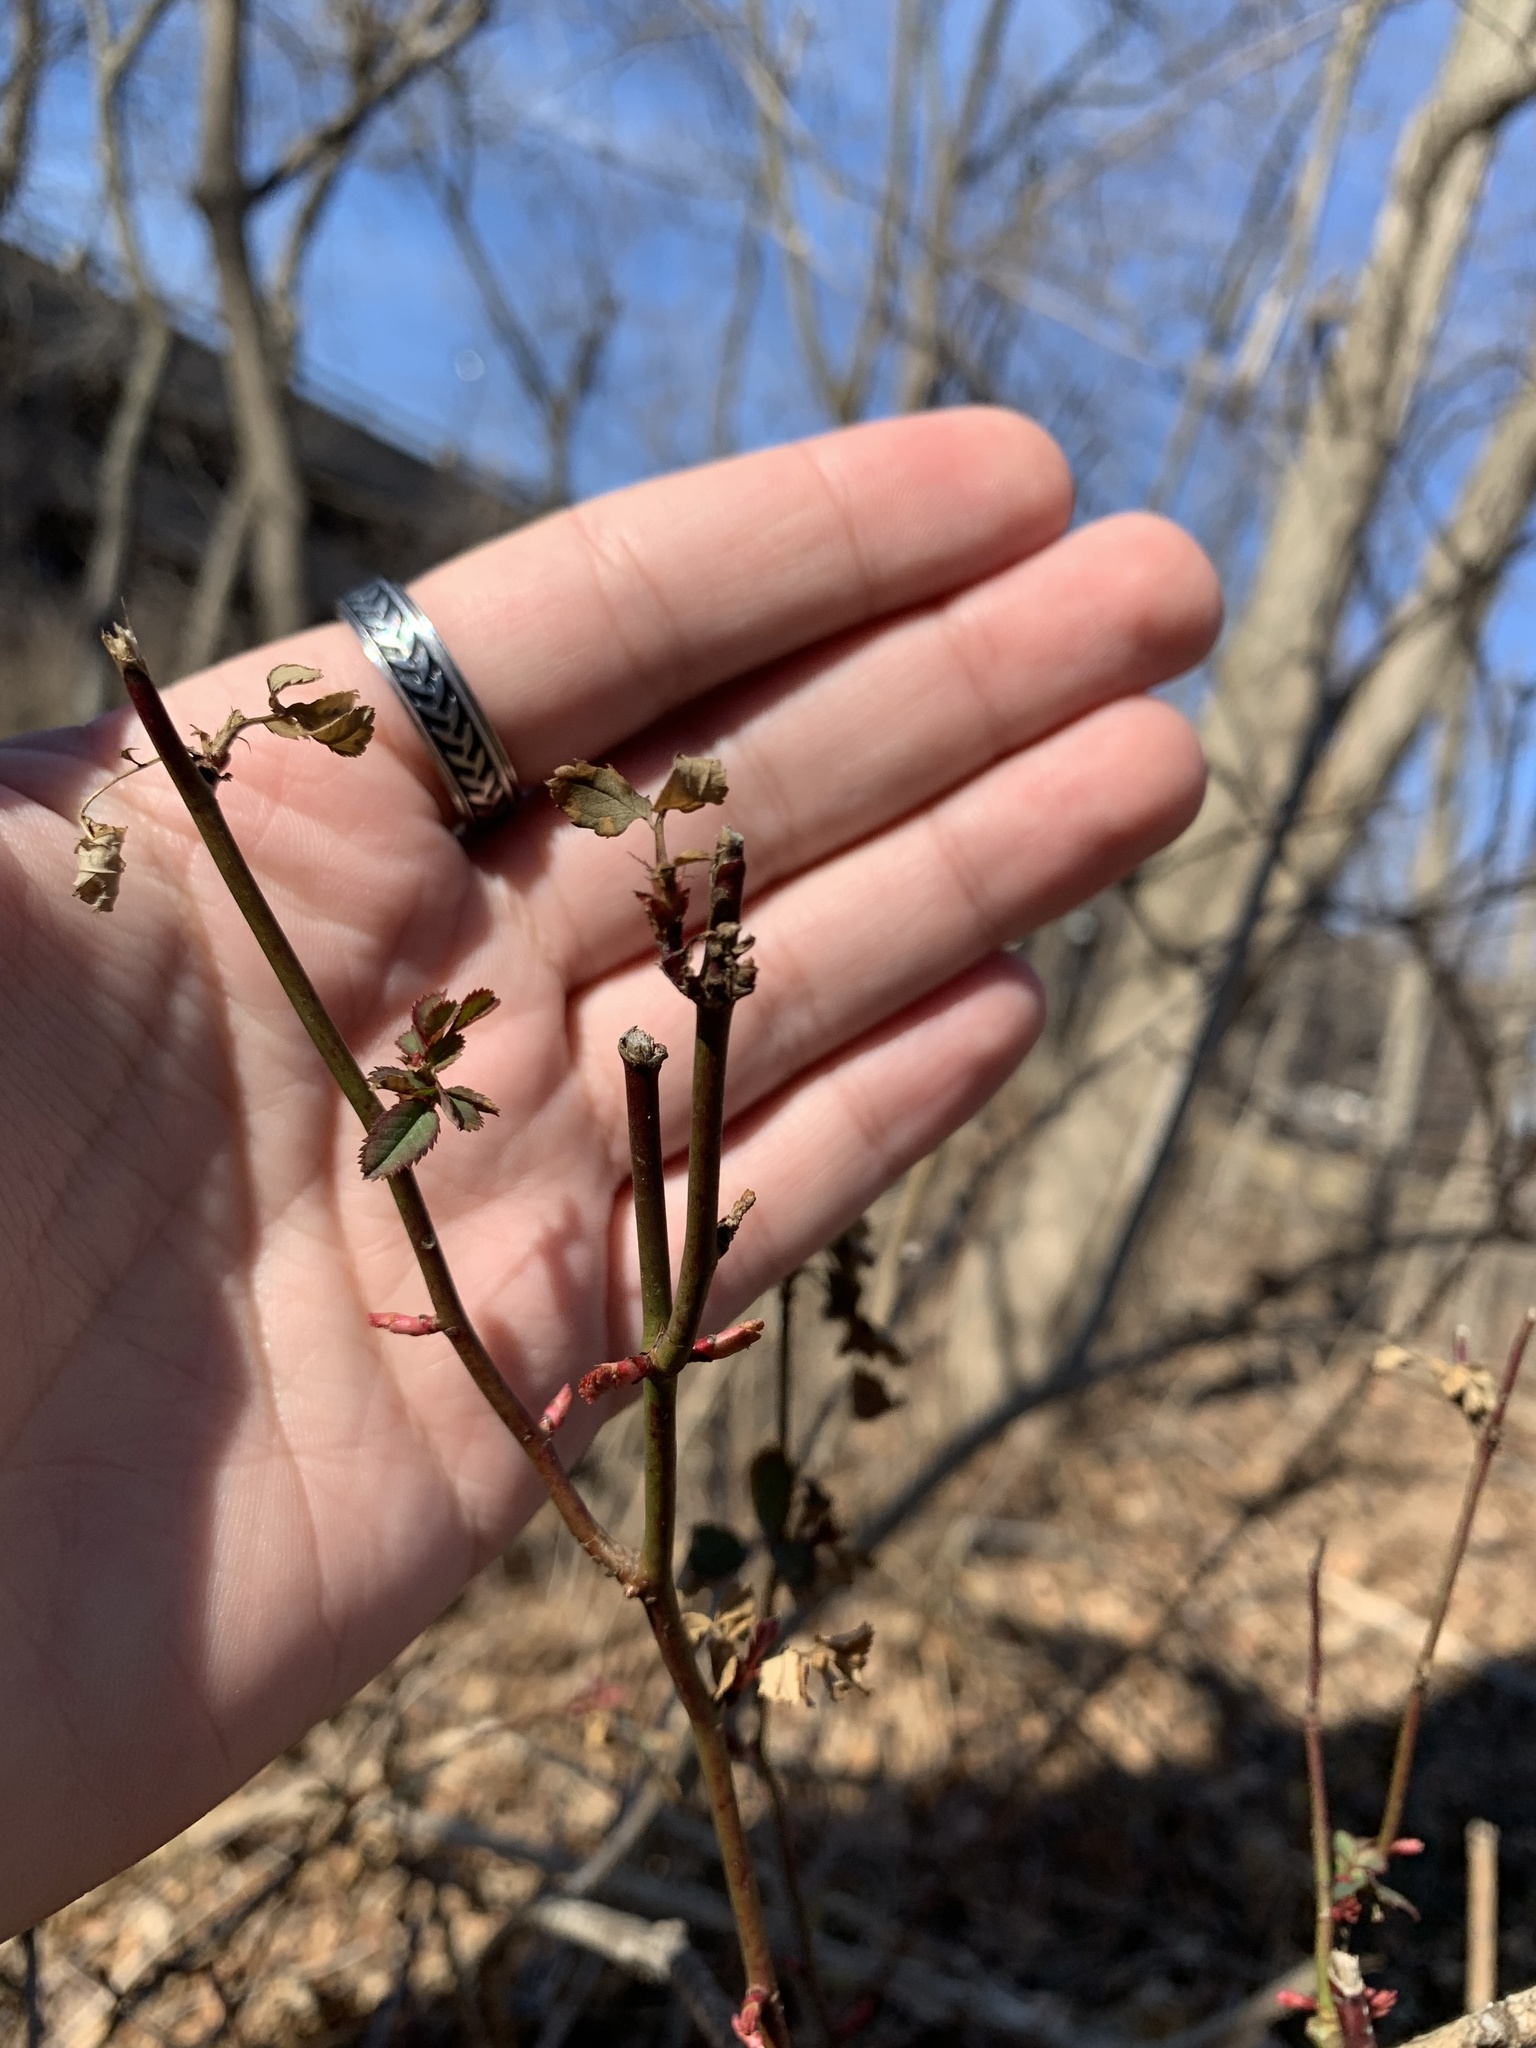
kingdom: Plantae
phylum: Tracheophyta
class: Magnoliopsida
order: Rosales
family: Rosaceae
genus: Rosa
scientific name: Rosa multiflora
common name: Multiflora rose
